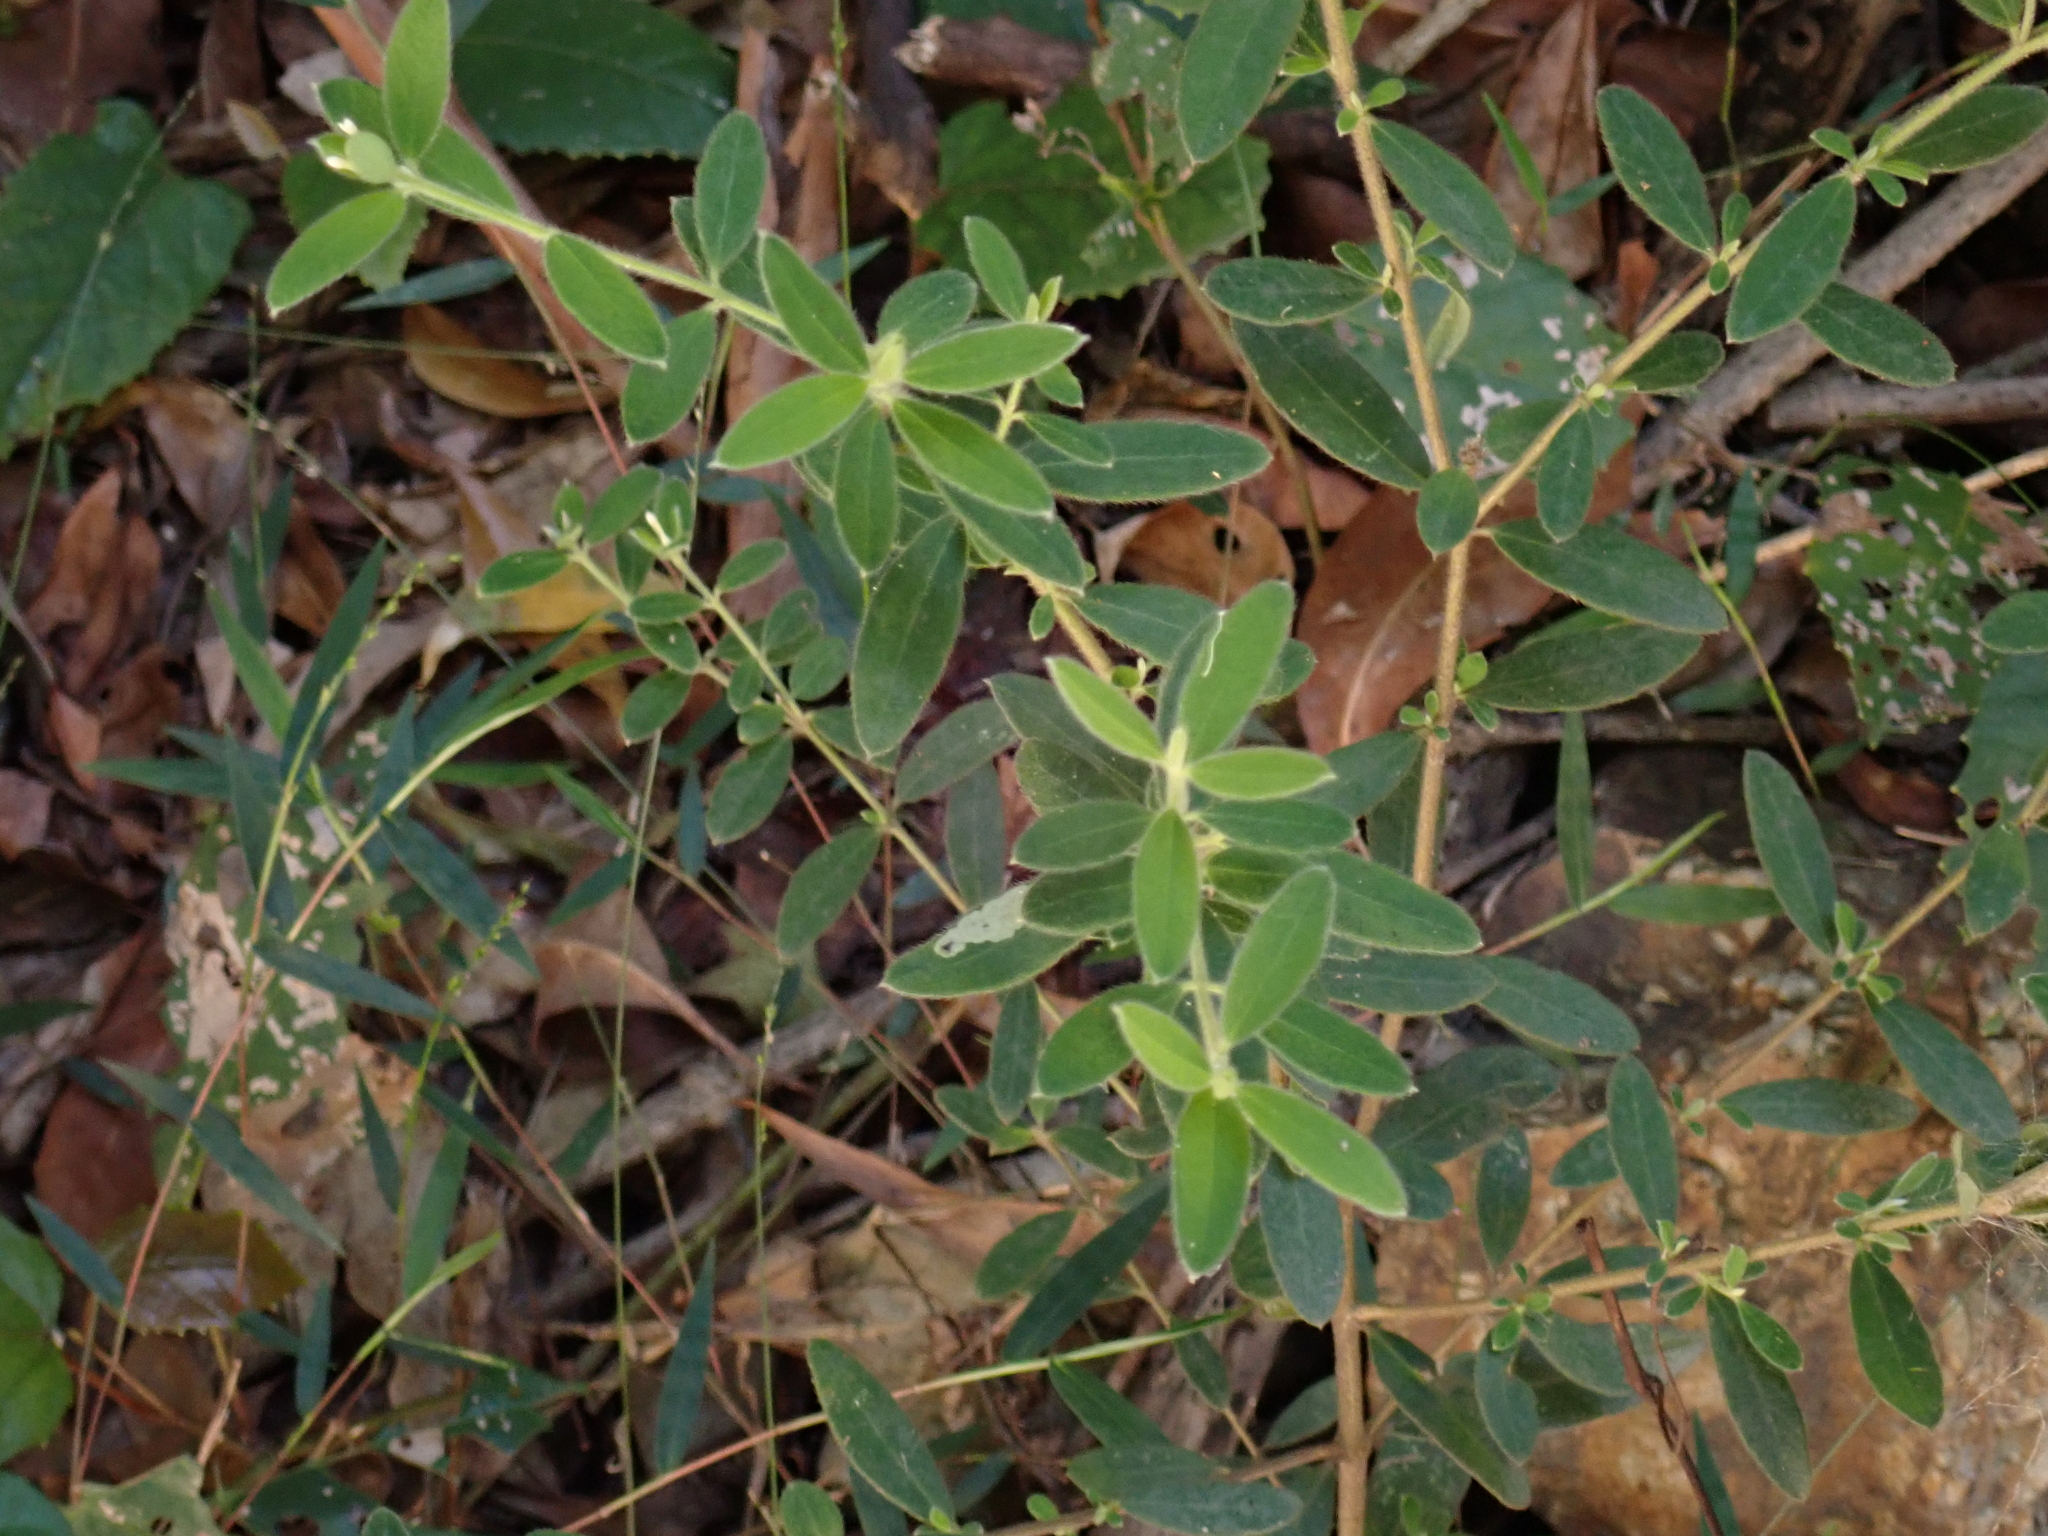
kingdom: Plantae
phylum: Tracheophyta
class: Magnoliopsida
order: Malvales
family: Thymelaeaceae
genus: Pimelea
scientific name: Pimelea altior
